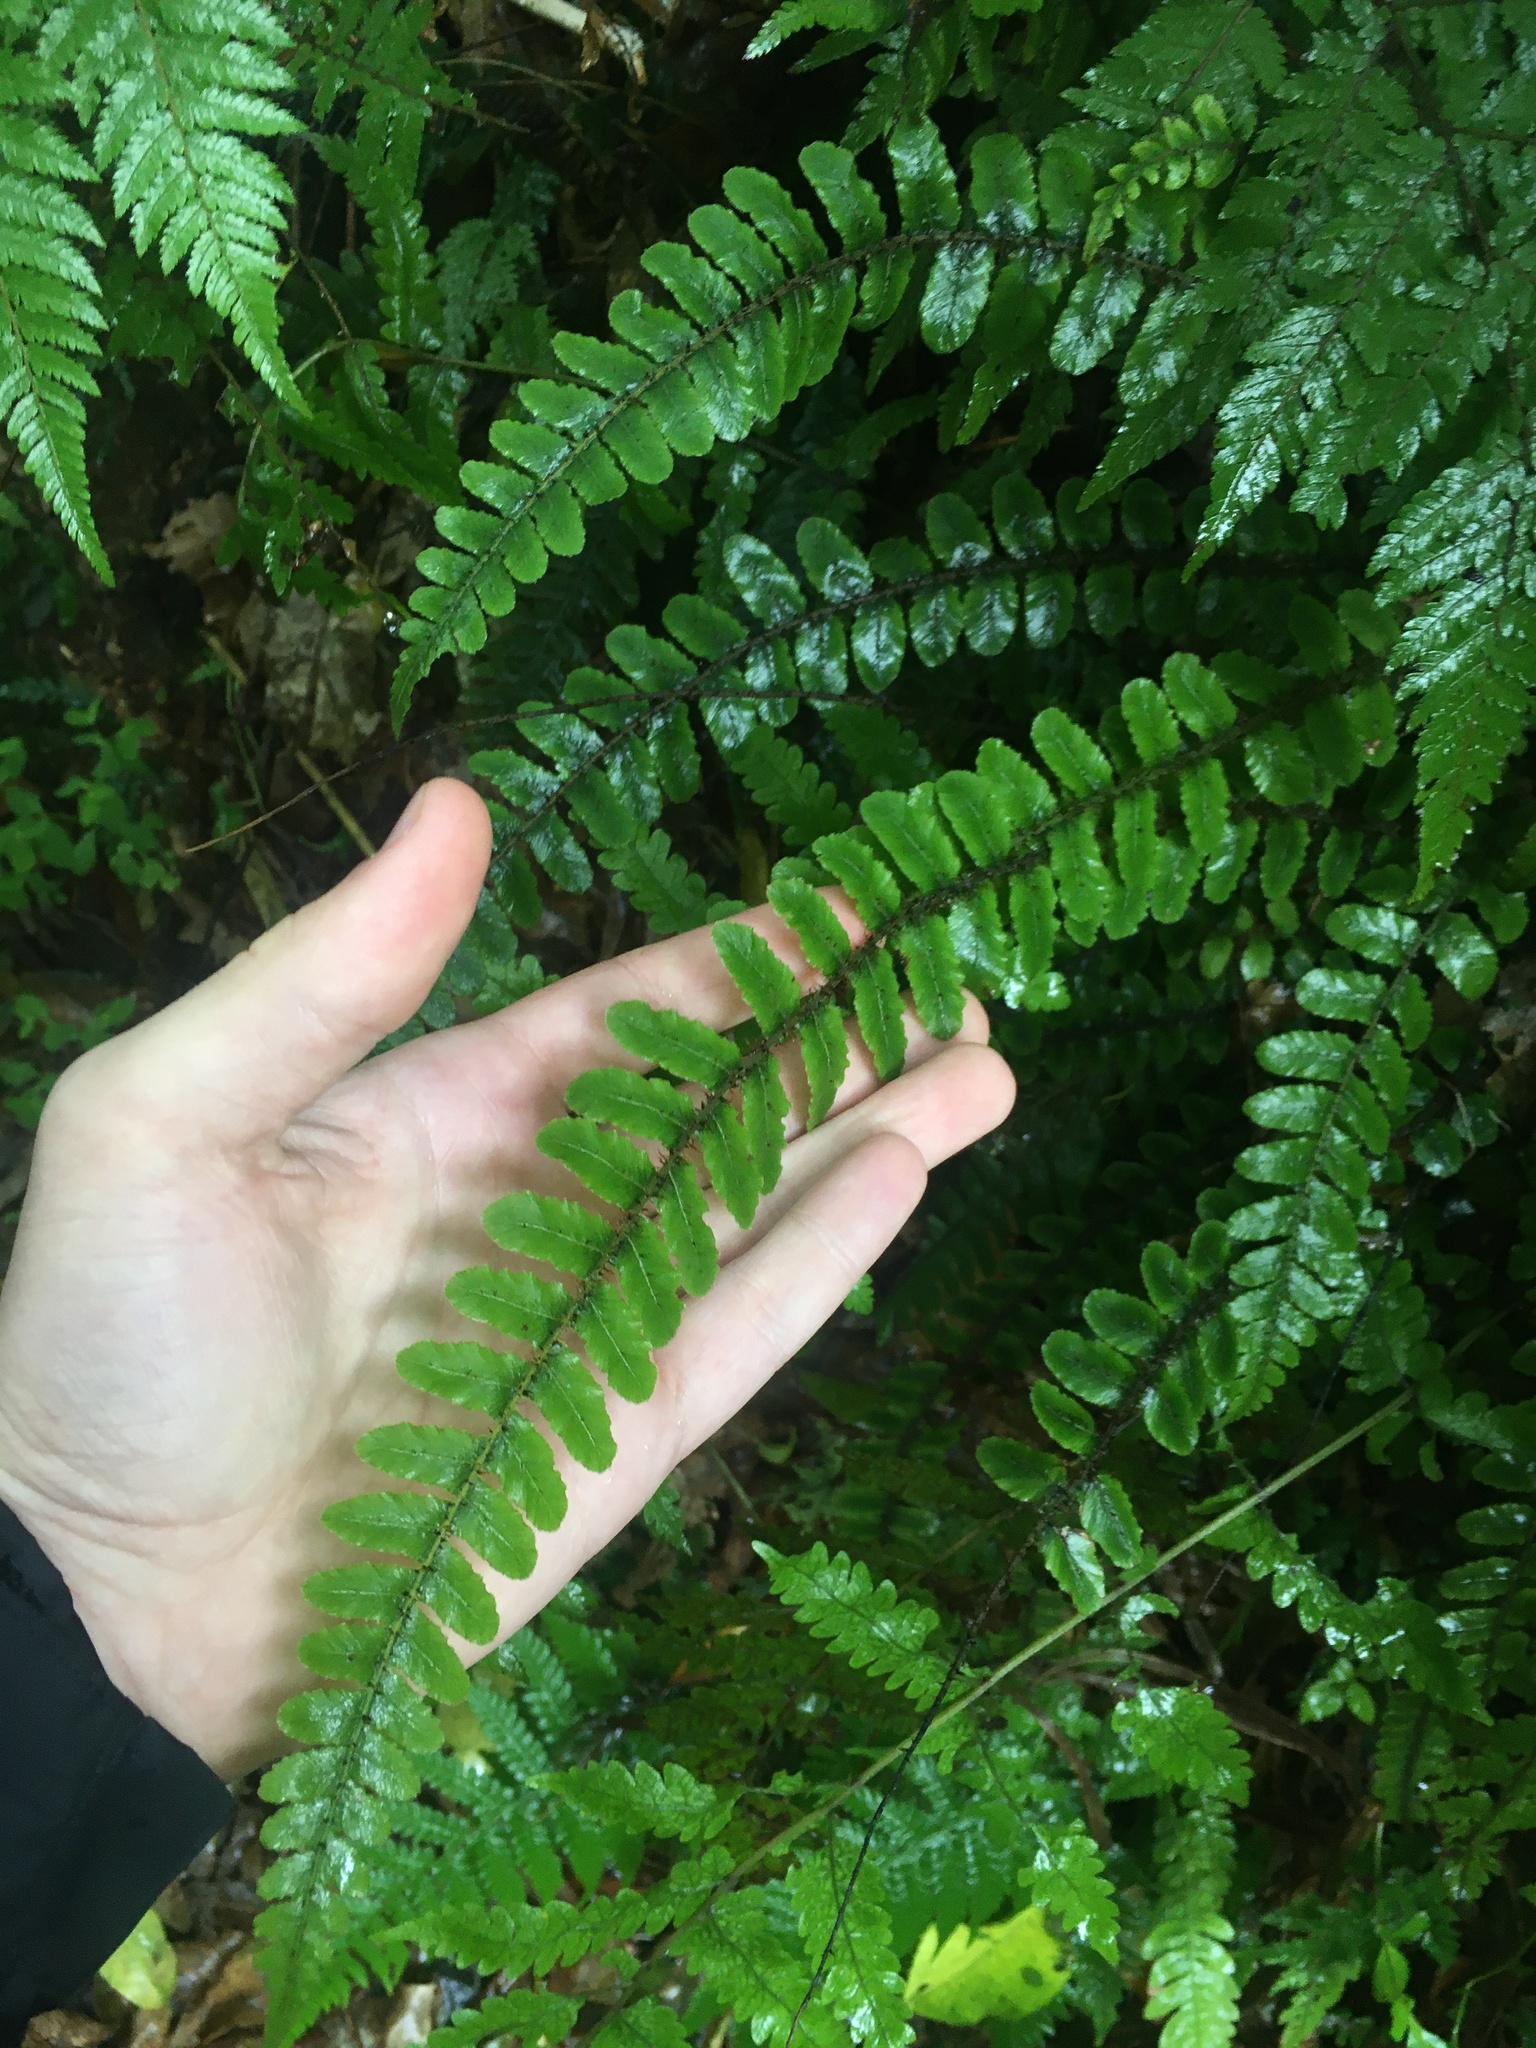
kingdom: Plantae
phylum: Tracheophyta
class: Polypodiopsida
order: Polypodiales
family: Blechnaceae
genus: Cranfillia
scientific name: Cranfillia fluviatilis
